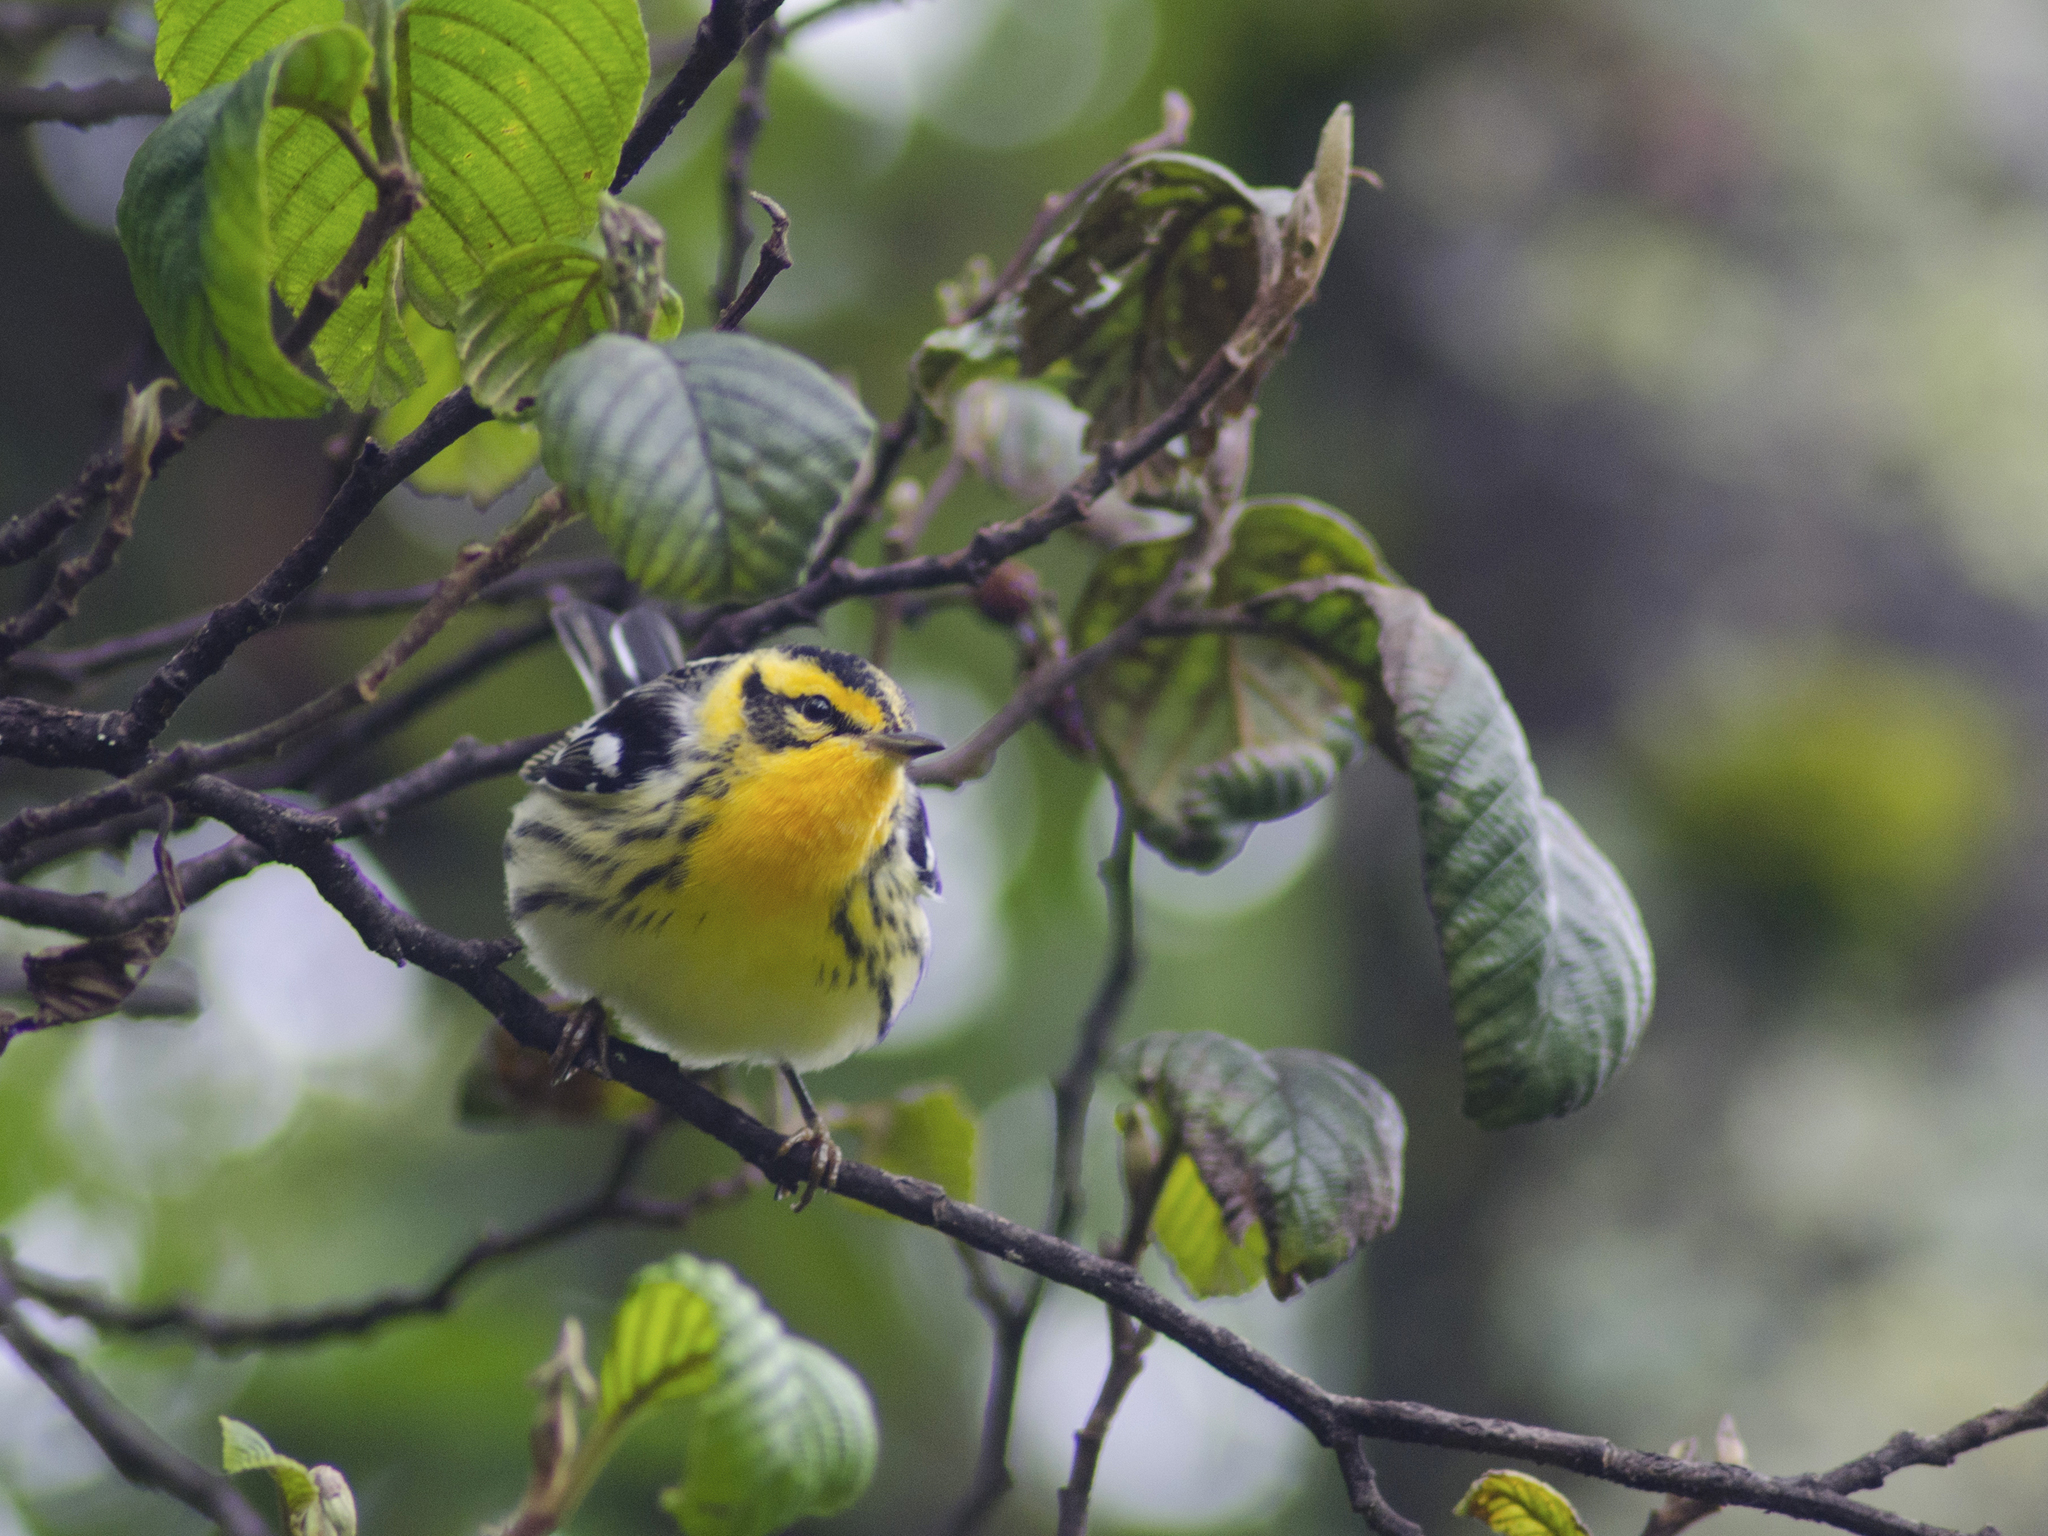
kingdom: Animalia
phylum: Chordata
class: Aves
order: Passeriformes
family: Parulidae
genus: Setophaga
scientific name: Setophaga fusca
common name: Blackburnian warbler
